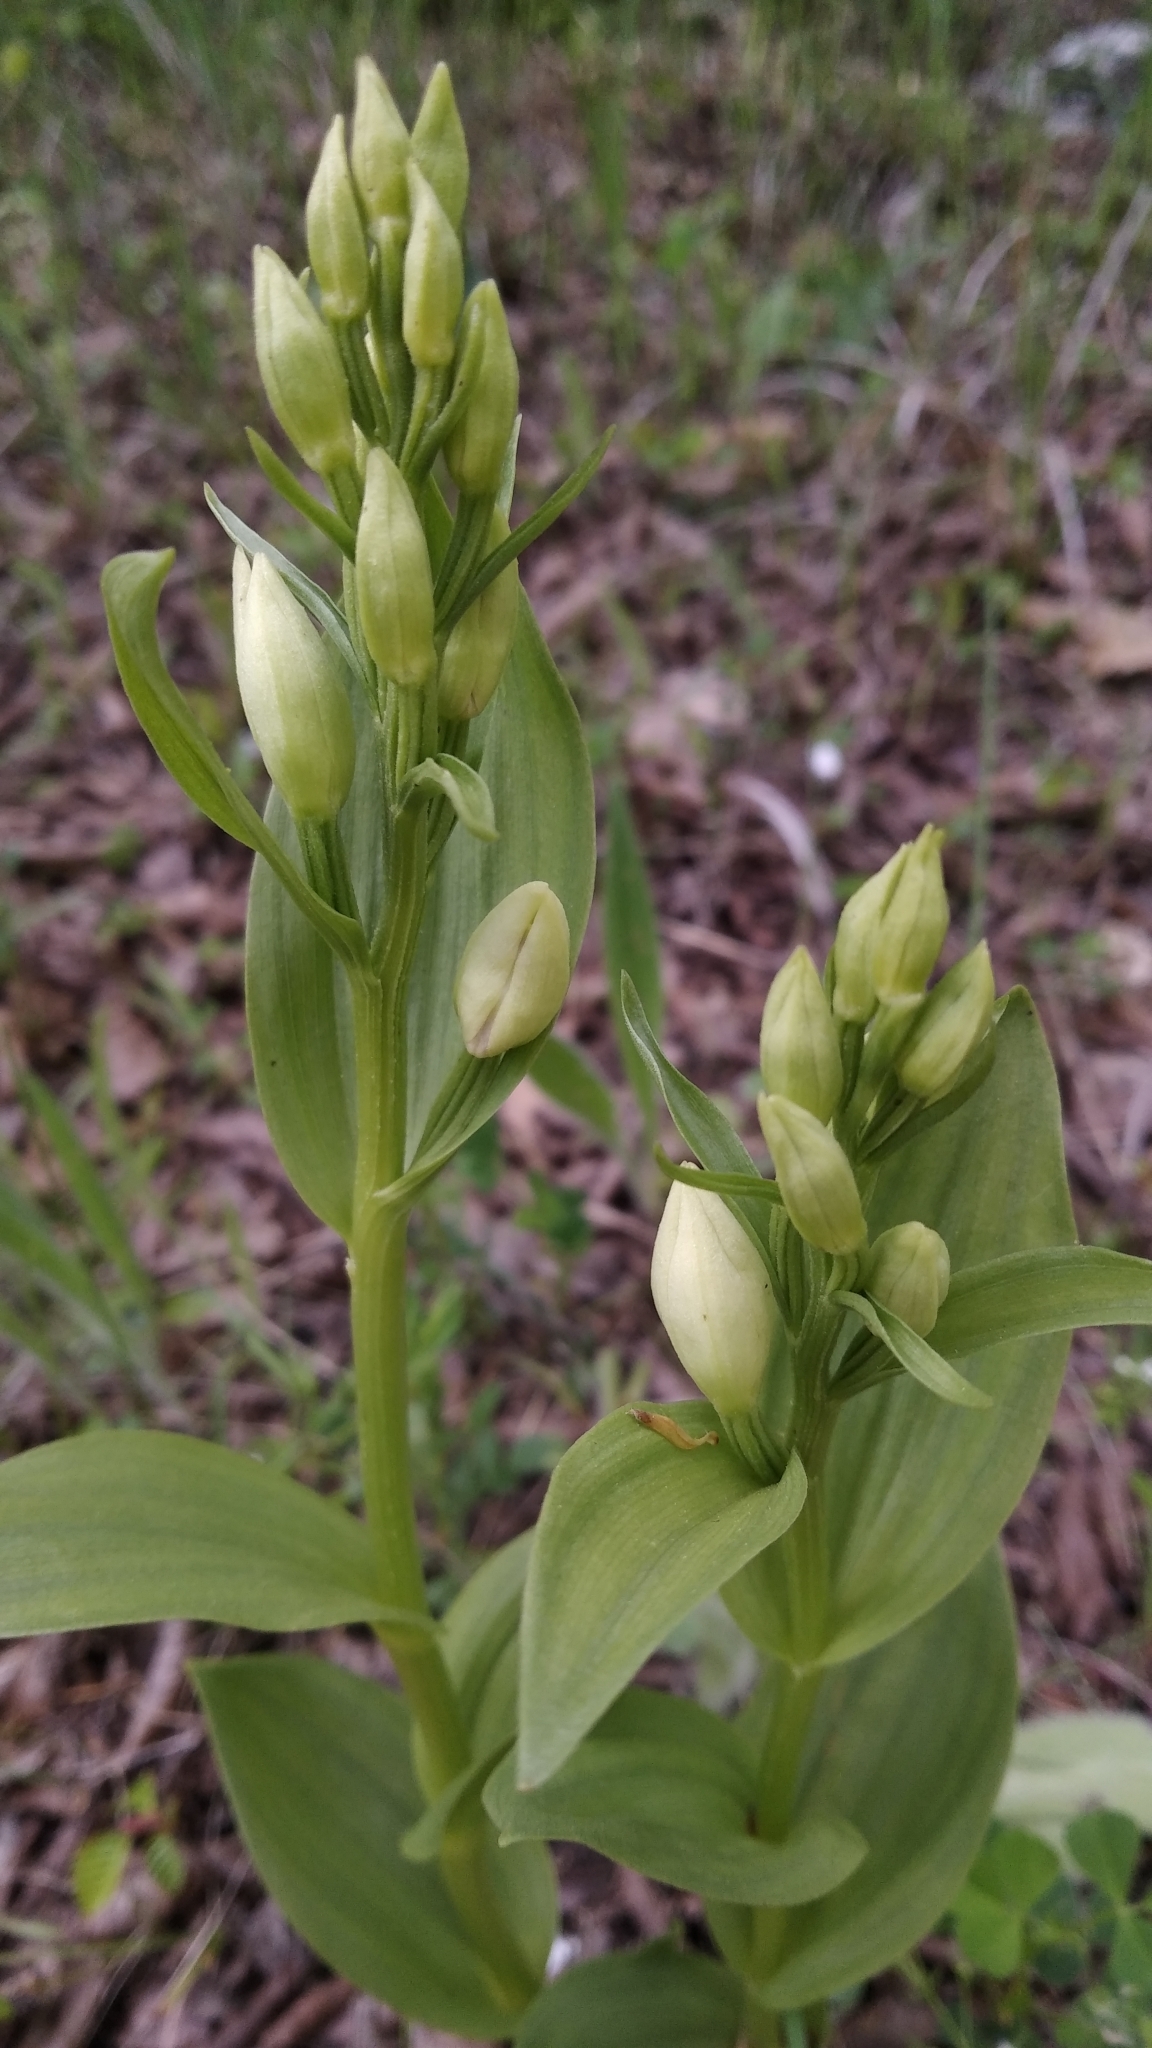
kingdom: Plantae
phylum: Tracheophyta
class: Liliopsida
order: Asparagales
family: Orchidaceae
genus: Cephalanthera
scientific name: Cephalanthera damasonium
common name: White helleborine
